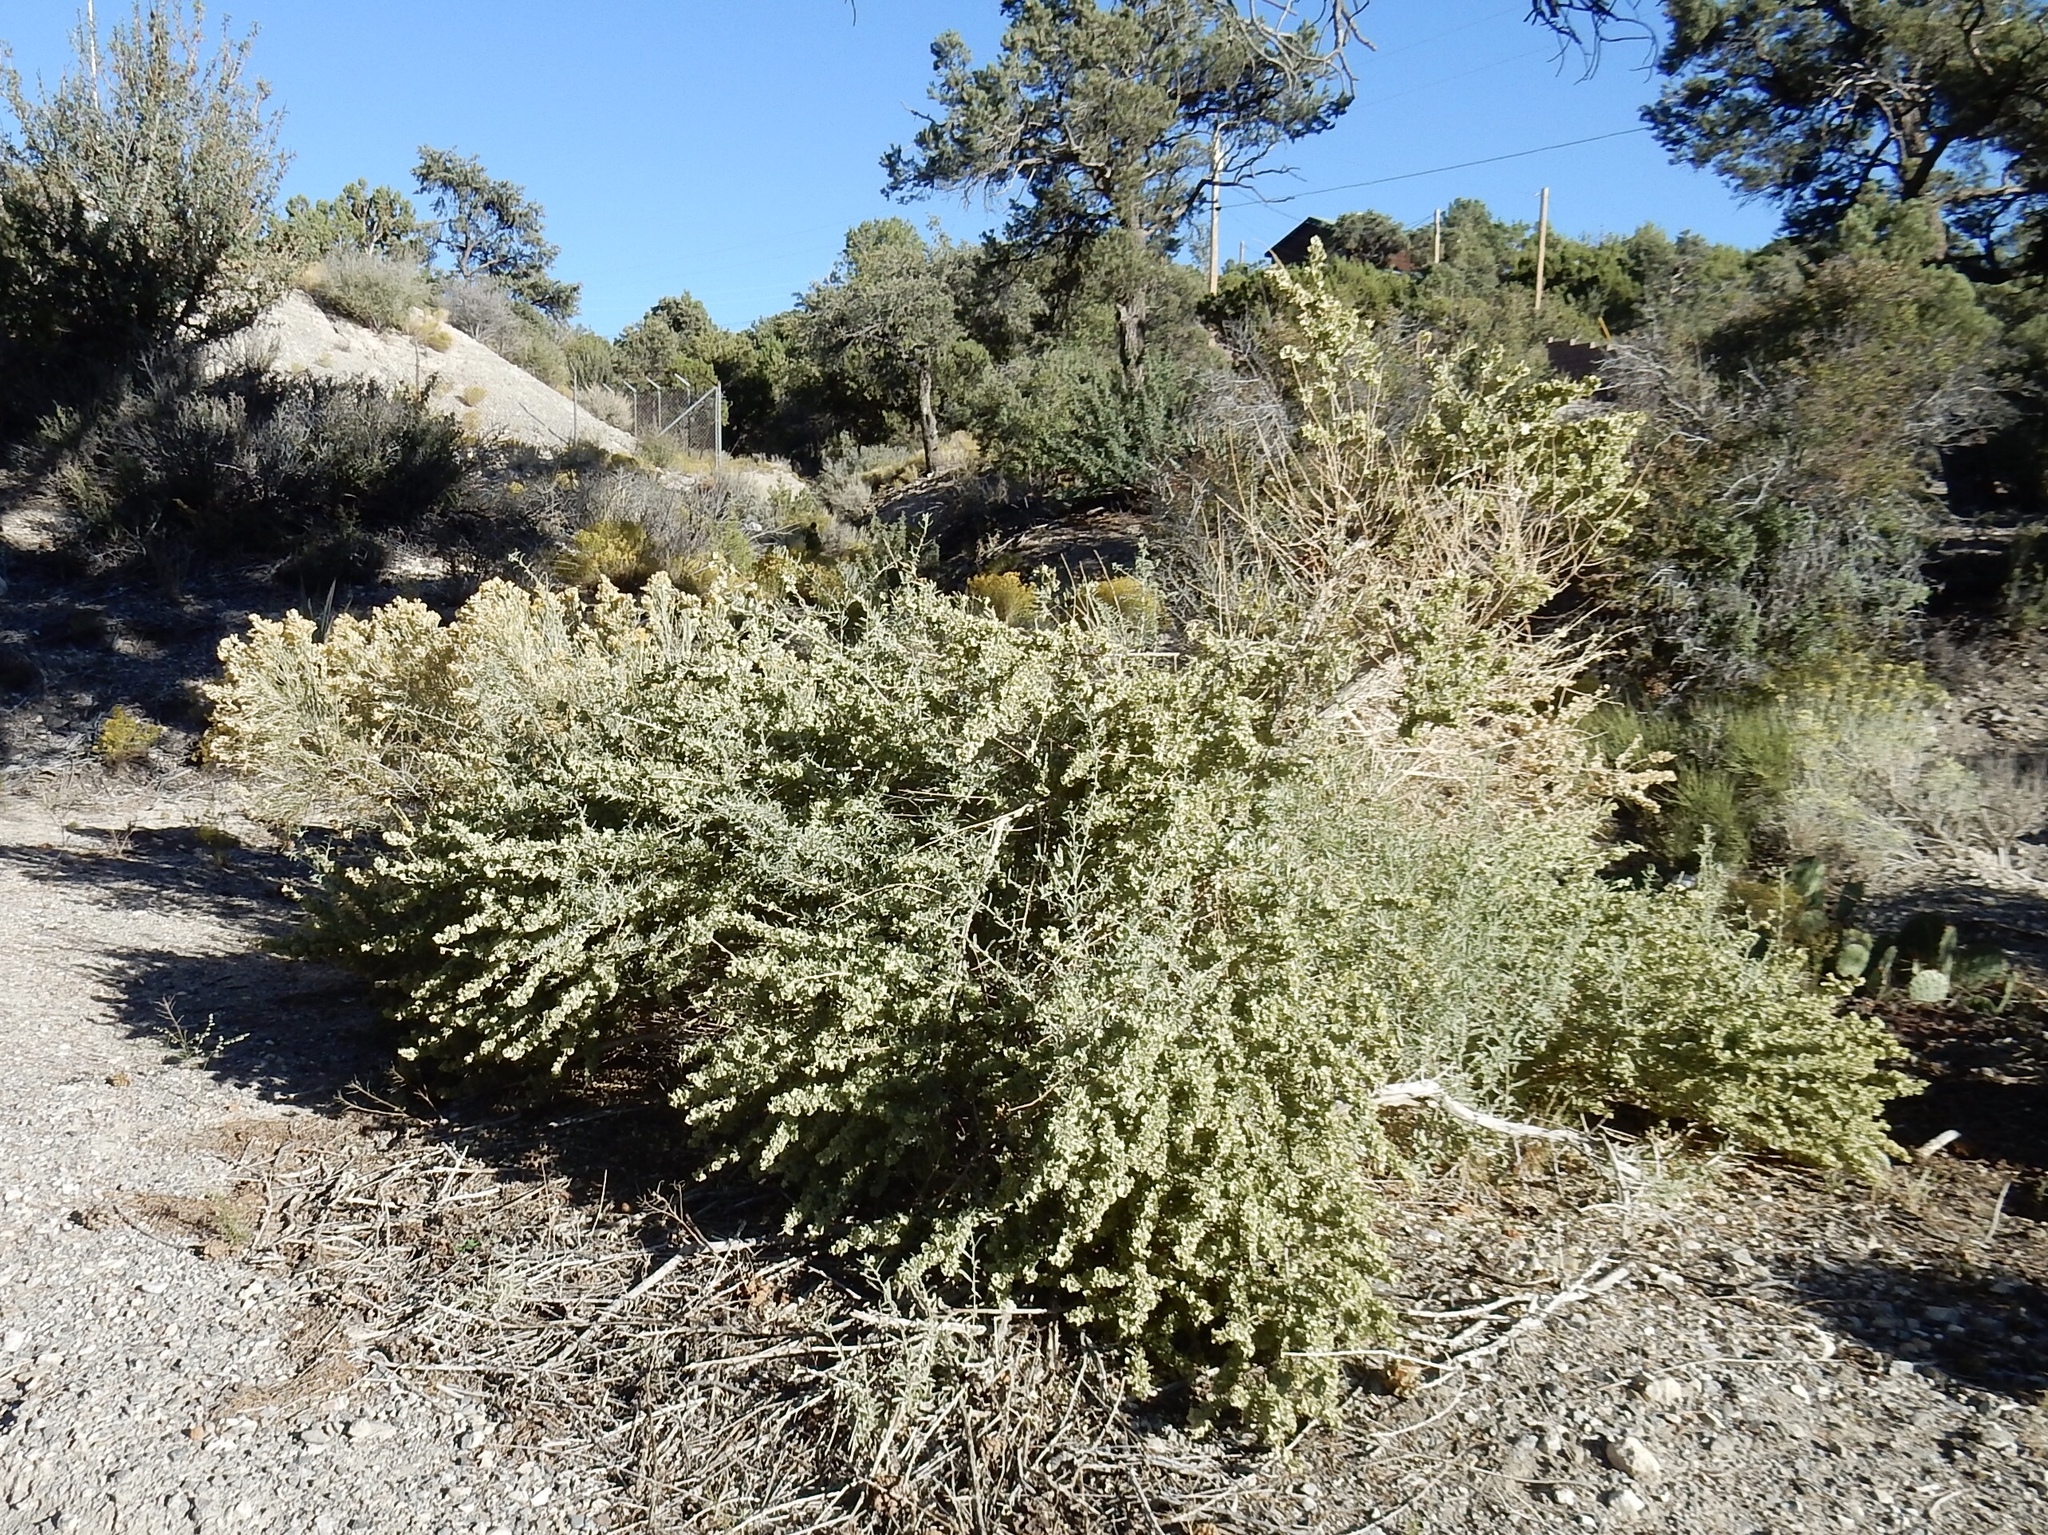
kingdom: Plantae
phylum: Tracheophyta
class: Magnoliopsida
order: Caryophyllales
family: Amaranthaceae
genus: Atriplex
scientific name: Atriplex canescens
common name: Four-wing saltbush
